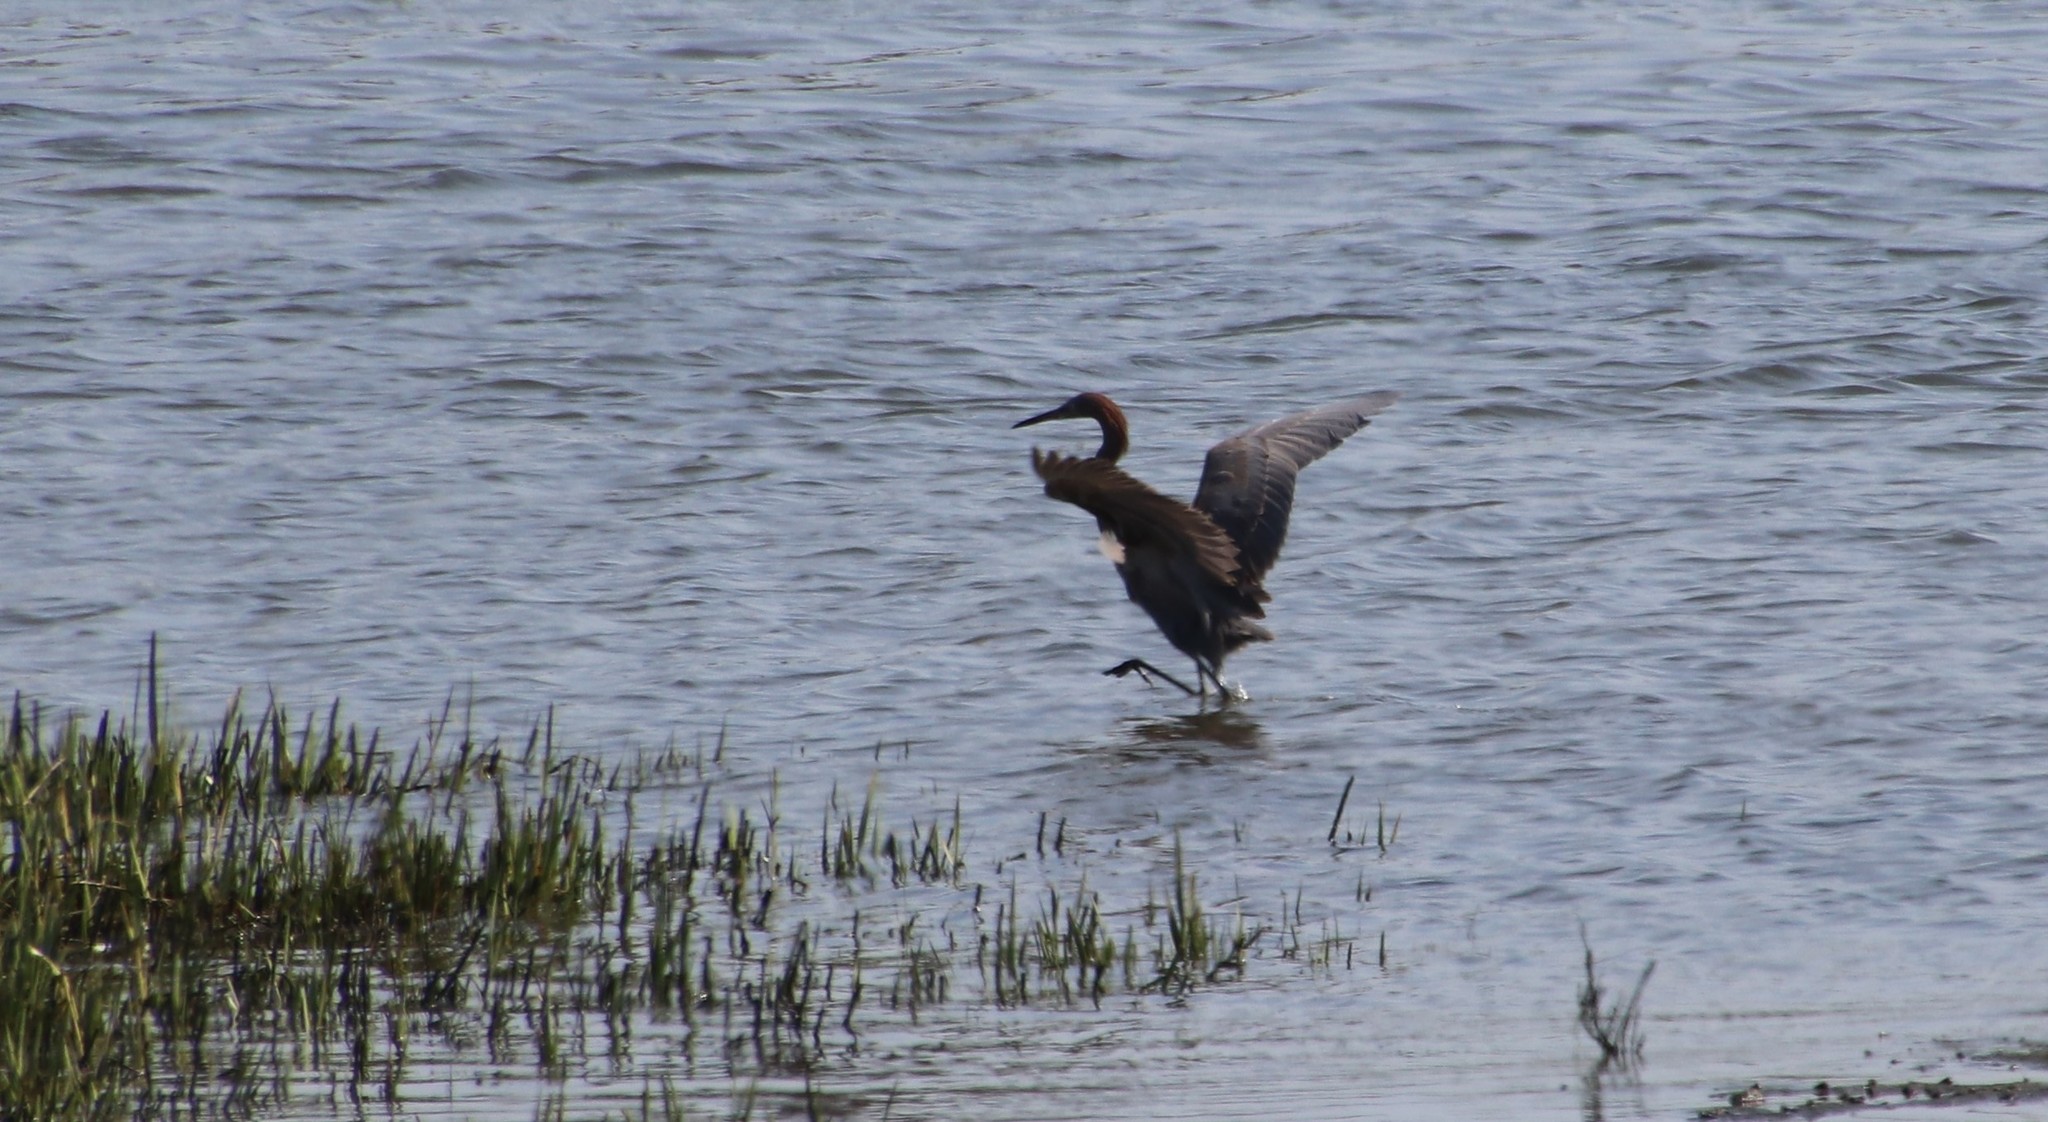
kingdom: Animalia
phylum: Chordata
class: Aves
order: Pelecaniformes
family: Ardeidae
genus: Egretta
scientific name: Egretta rufescens
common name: Reddish egret
